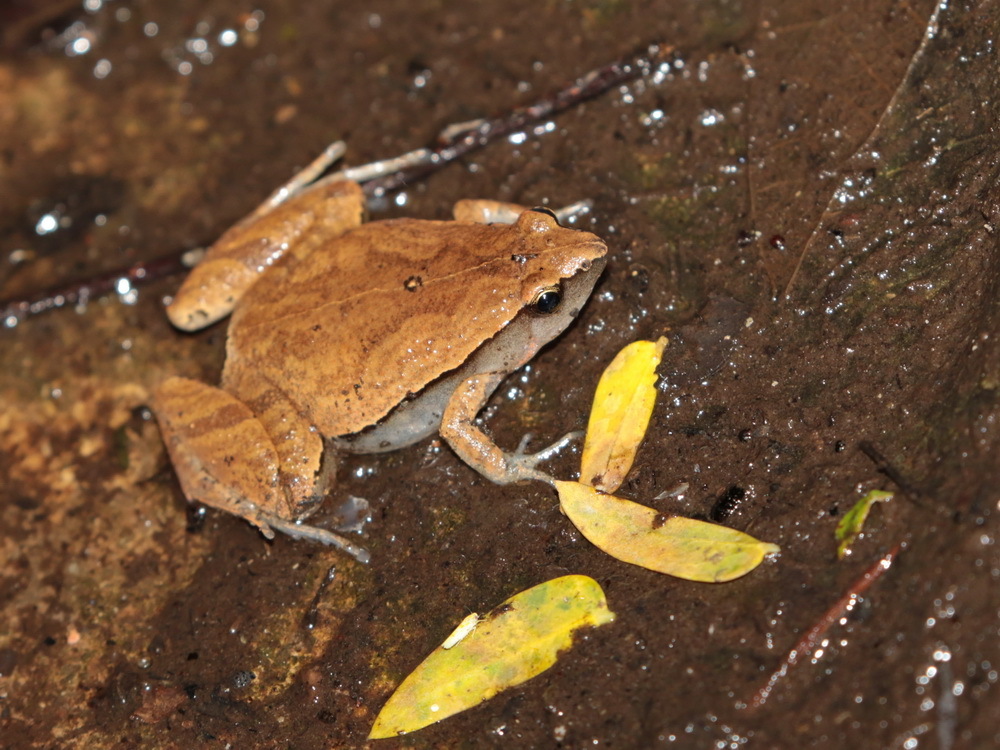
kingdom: Animalia
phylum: Chordata
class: Amphibia
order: Anura
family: Microhylidae
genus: Microhyla
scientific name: Microhyla heymonsi
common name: Taiwan rice frog,dark sided chorus frog
